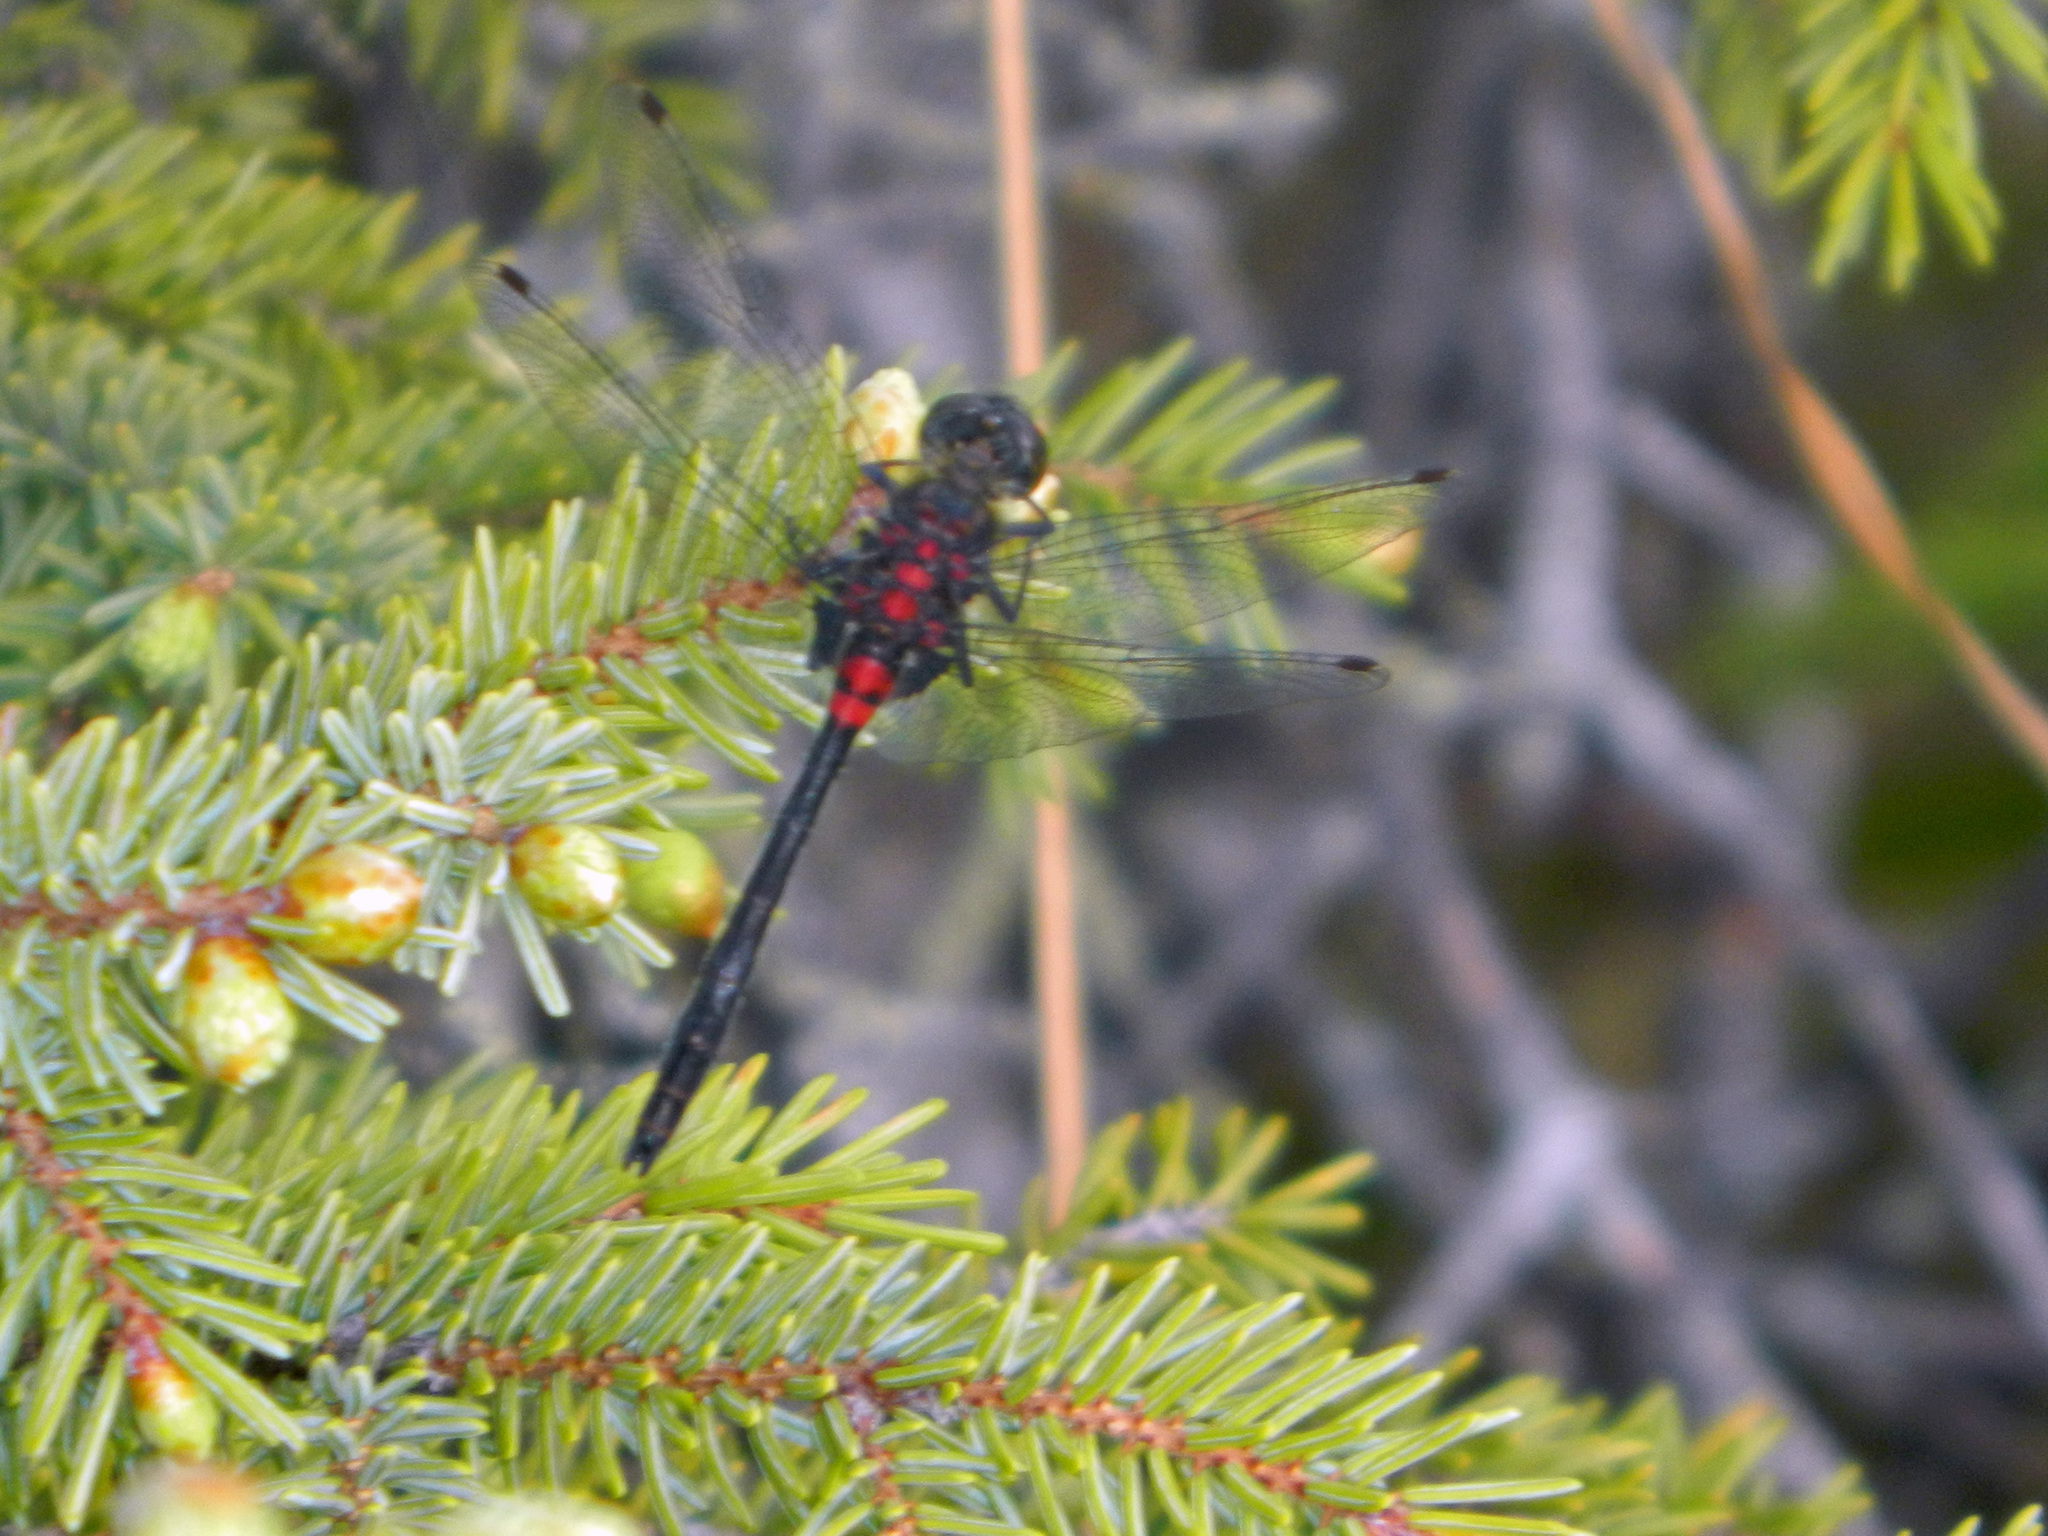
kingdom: Animalia
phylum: Arthropoda
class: Insecta
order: Odonata
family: Libellulidae
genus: Leucorrhinia
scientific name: Leucorrhinia glacialis
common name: Crimson-ringed whiteface
